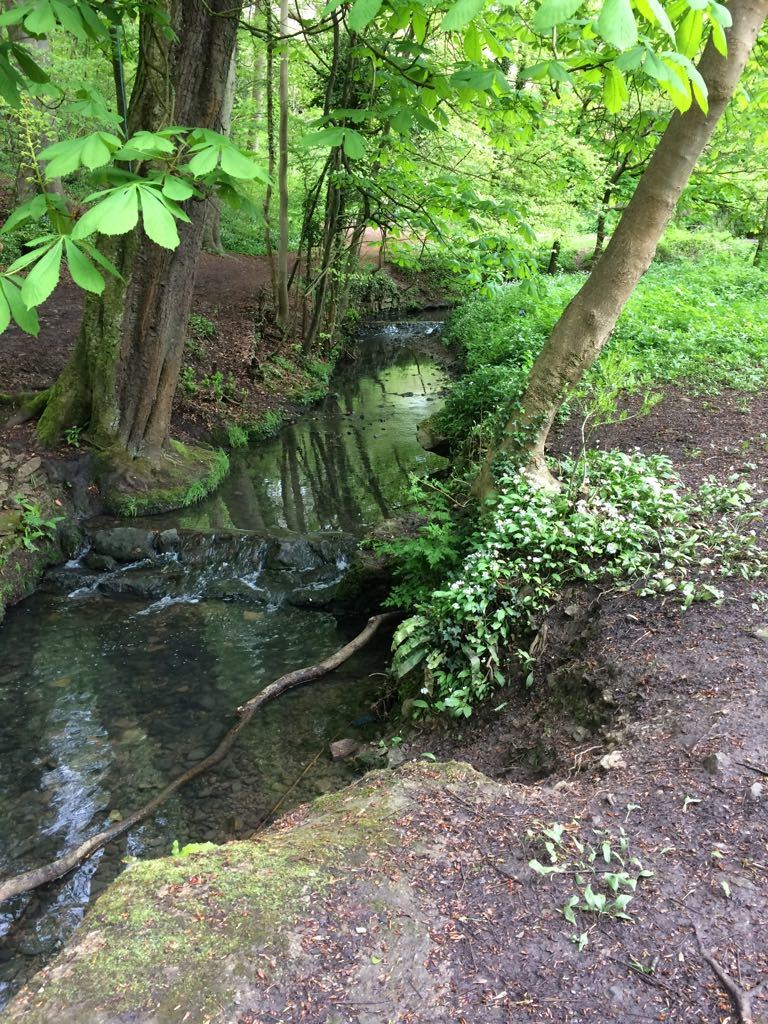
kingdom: Plantae
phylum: Tracheophyta
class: Magnoliopsida
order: Sapindales
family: Sapindaceae
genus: Aesculus
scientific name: Aesculus hippocastanum
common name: Horse-chestnut
